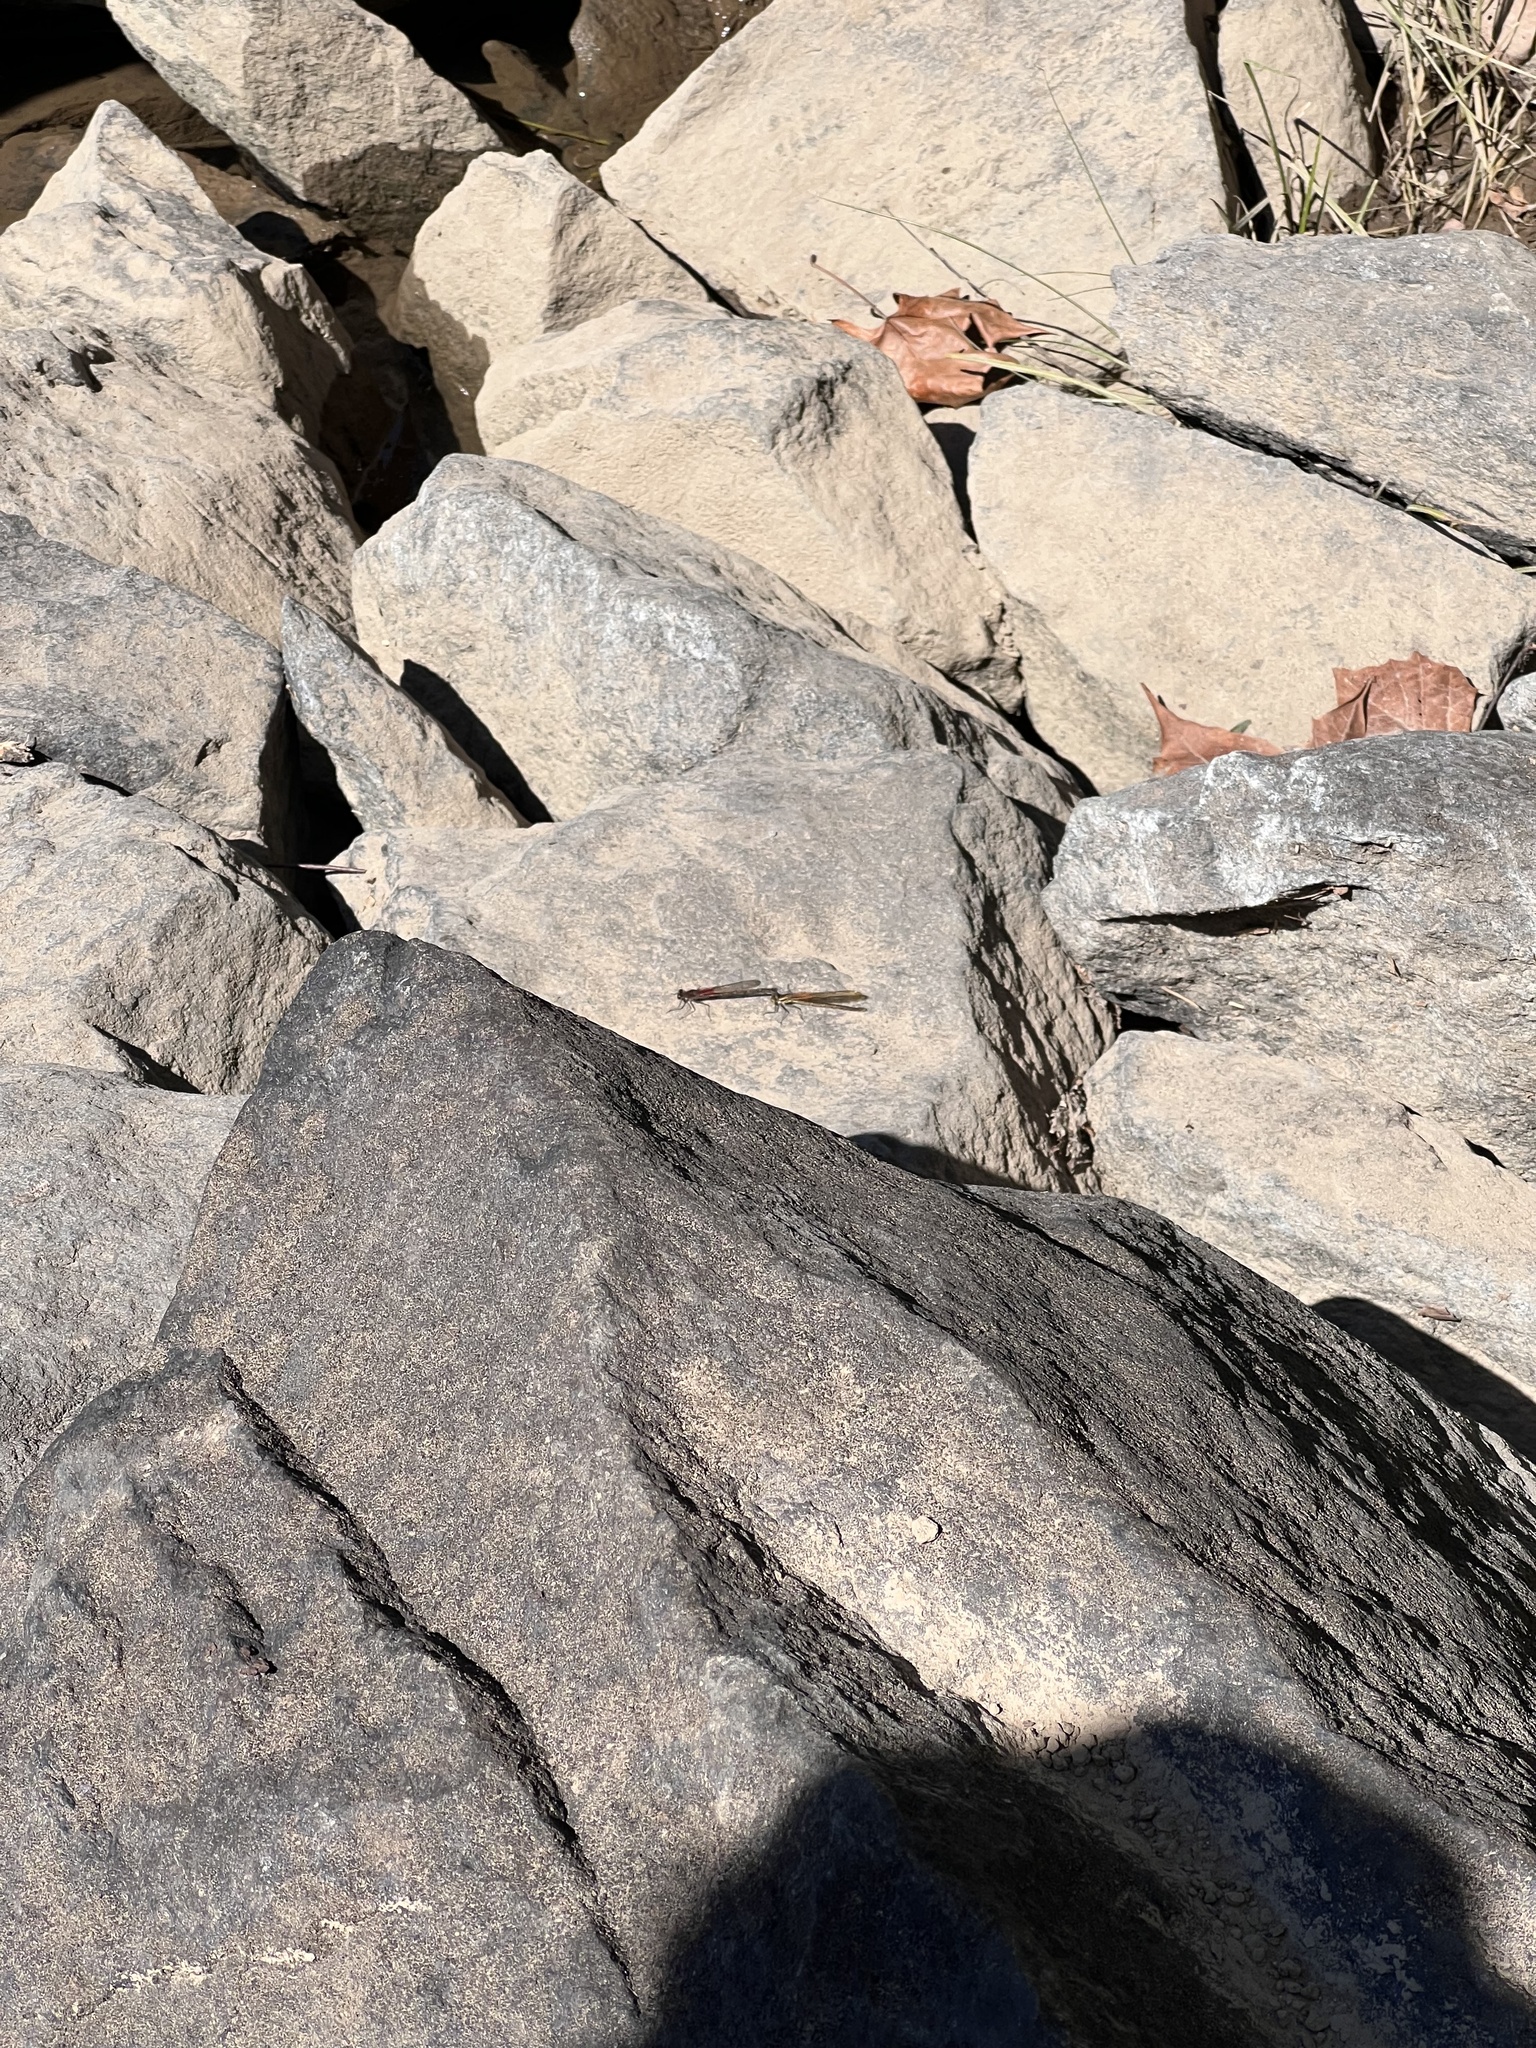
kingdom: Animalia
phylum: Arthropoda
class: Insecta
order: Odonata
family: Calopterygidae
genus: Hetaerina
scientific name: Hetaerina americana
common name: American rubyspot
